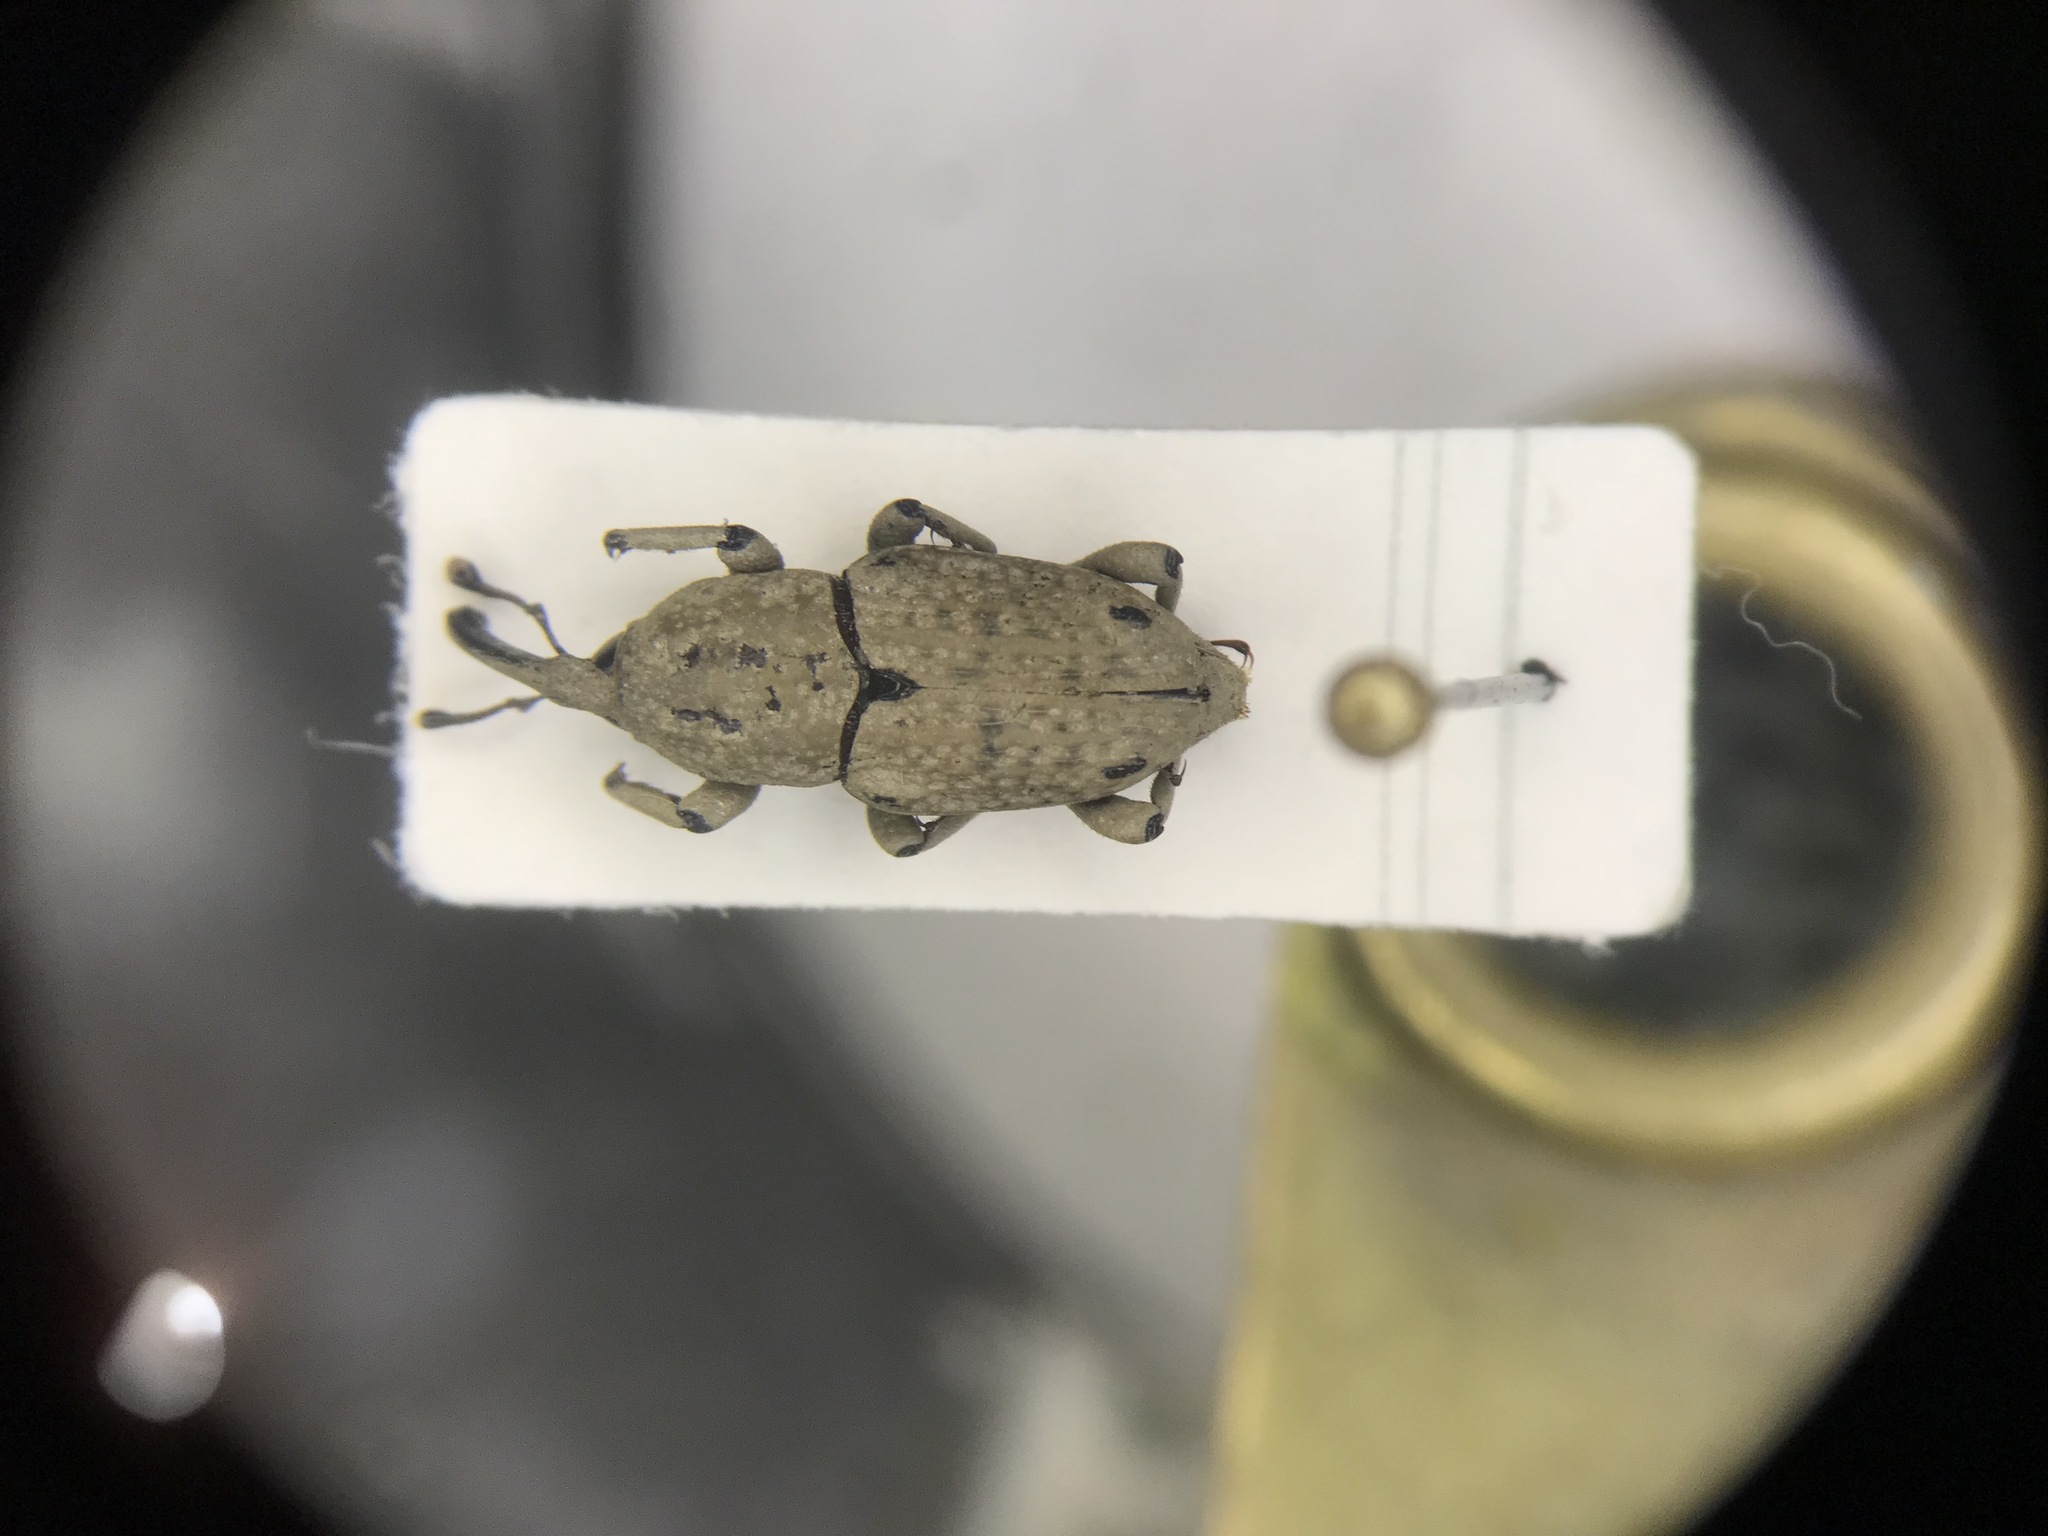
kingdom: Animalia
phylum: Arthropoda
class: Insecta
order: Coleoptera
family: Dryophthoridae
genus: Sphenophorus
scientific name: Sphenophorus callosus
